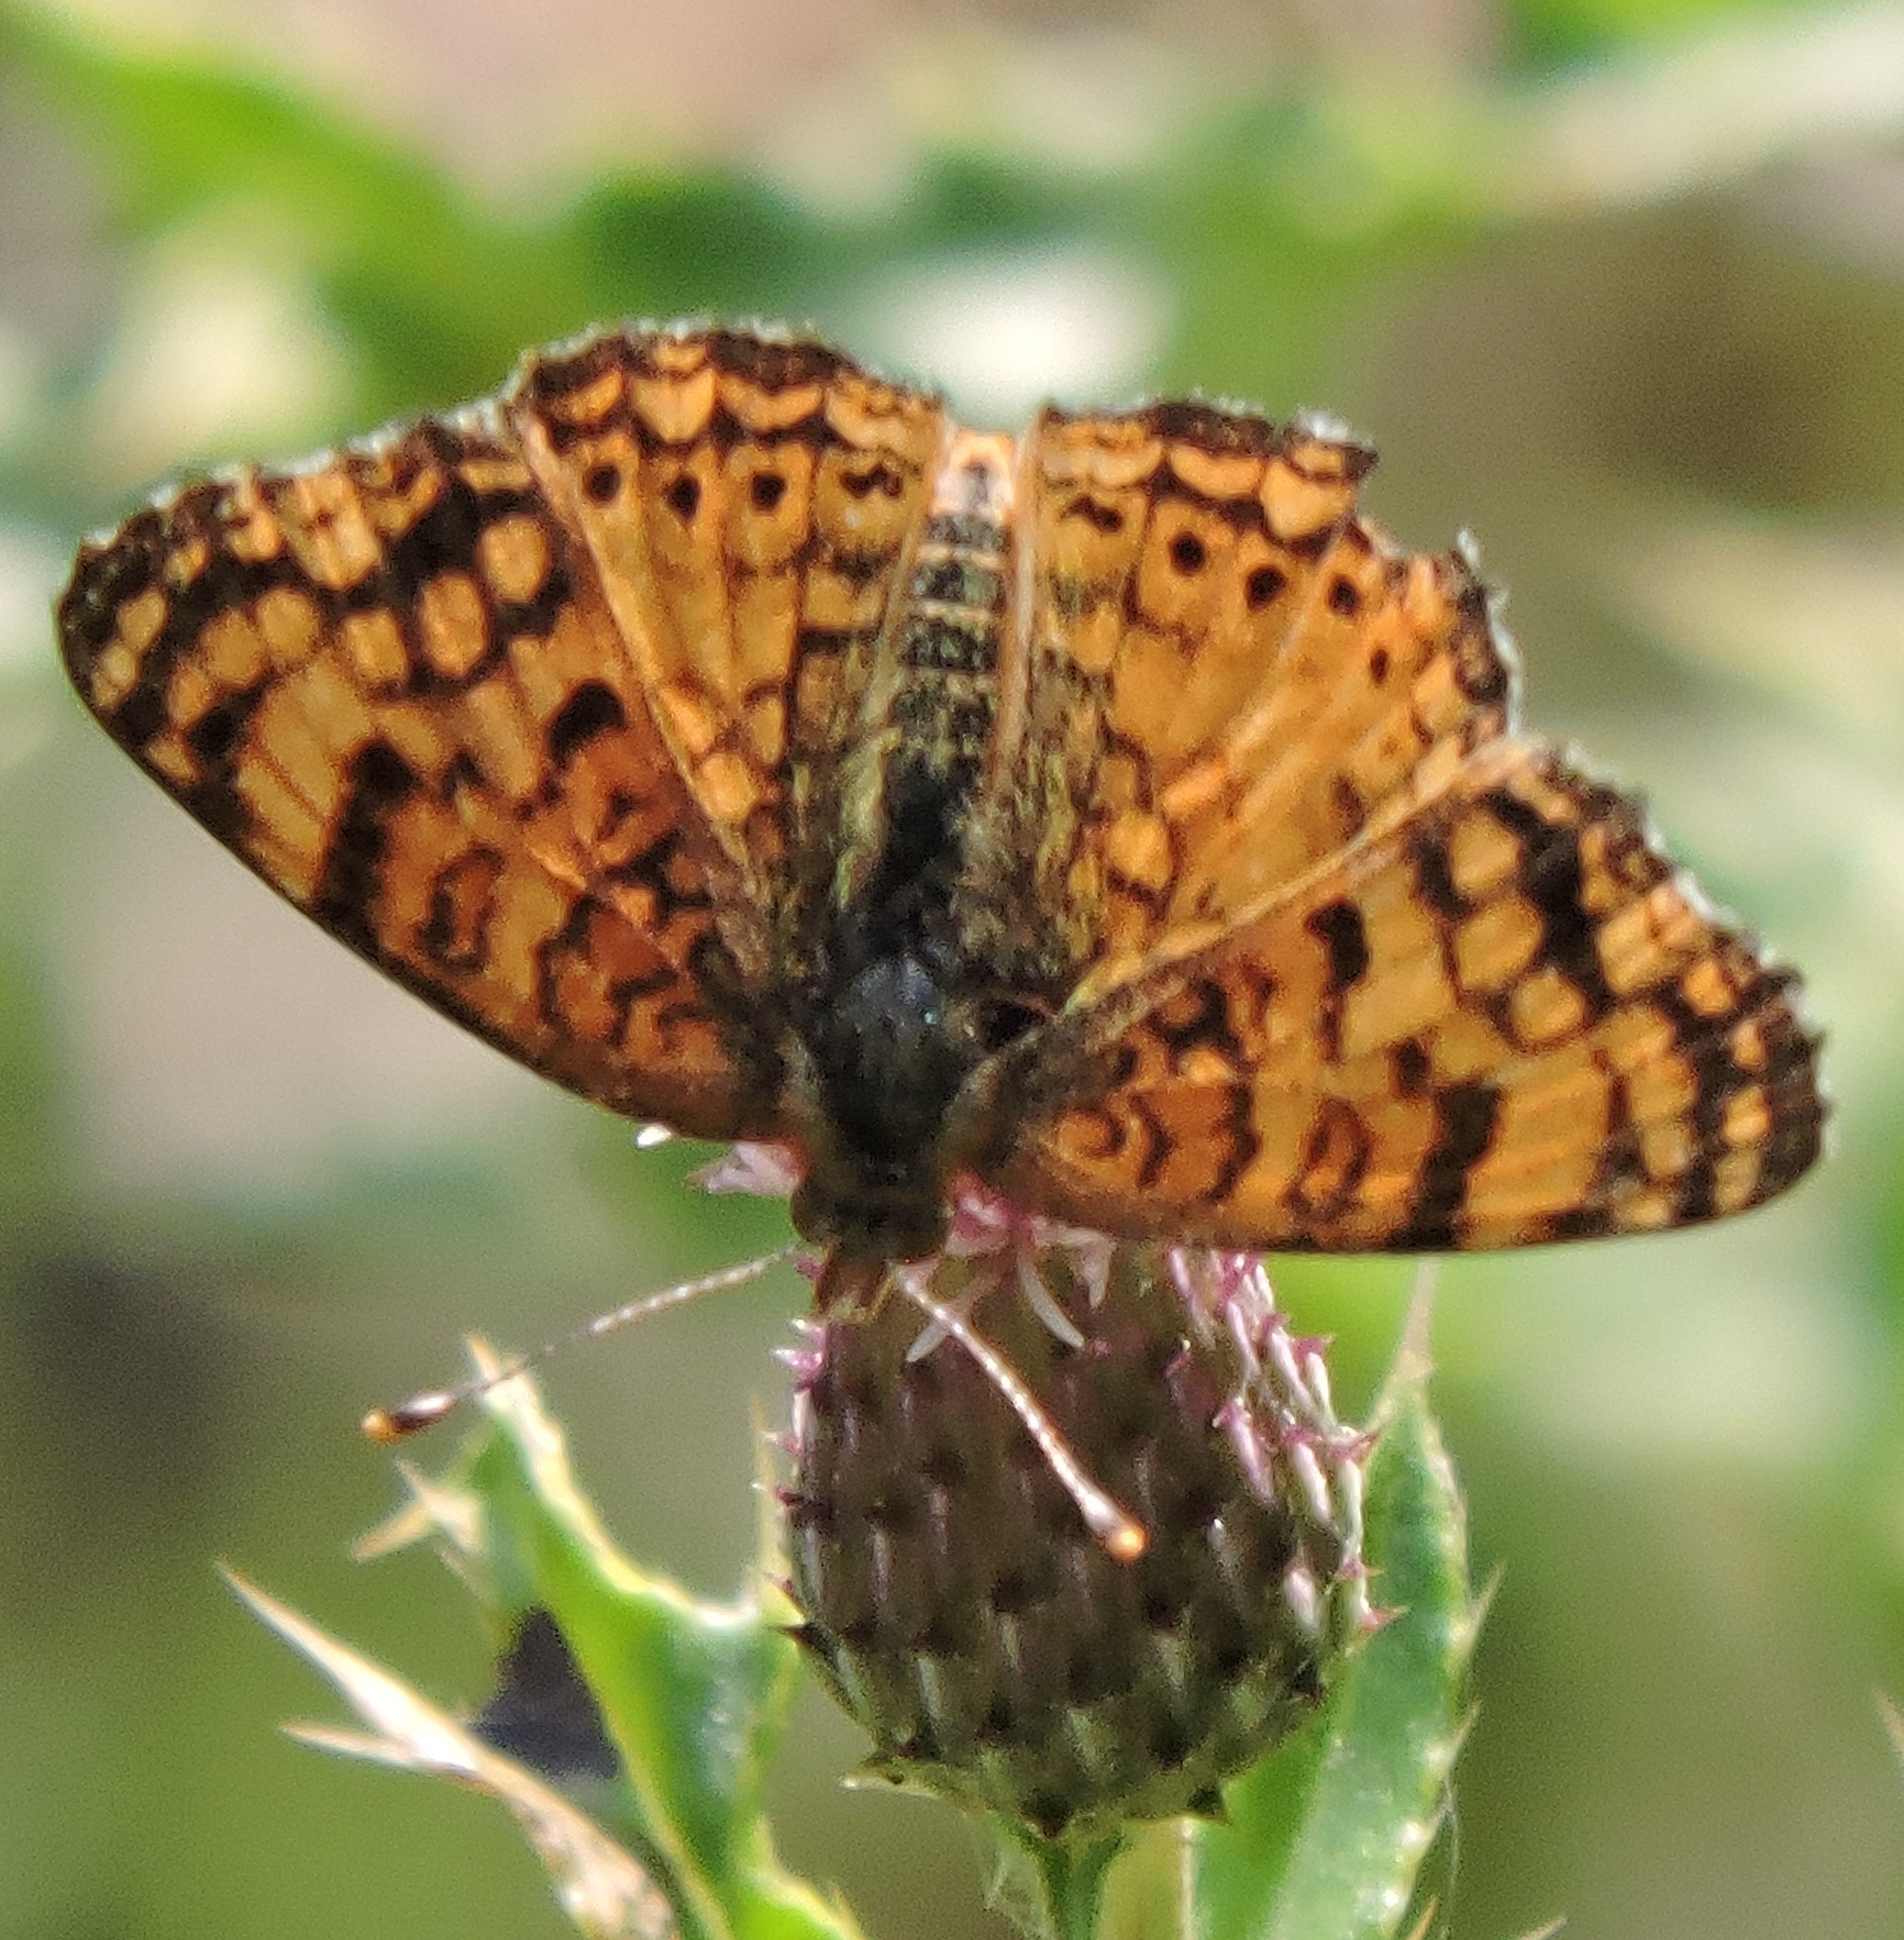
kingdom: Animalia
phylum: Arthropoda
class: Insecta
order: Lepidoptera
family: Nymphalidae
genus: Eresia
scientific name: Eresia aveyrona
